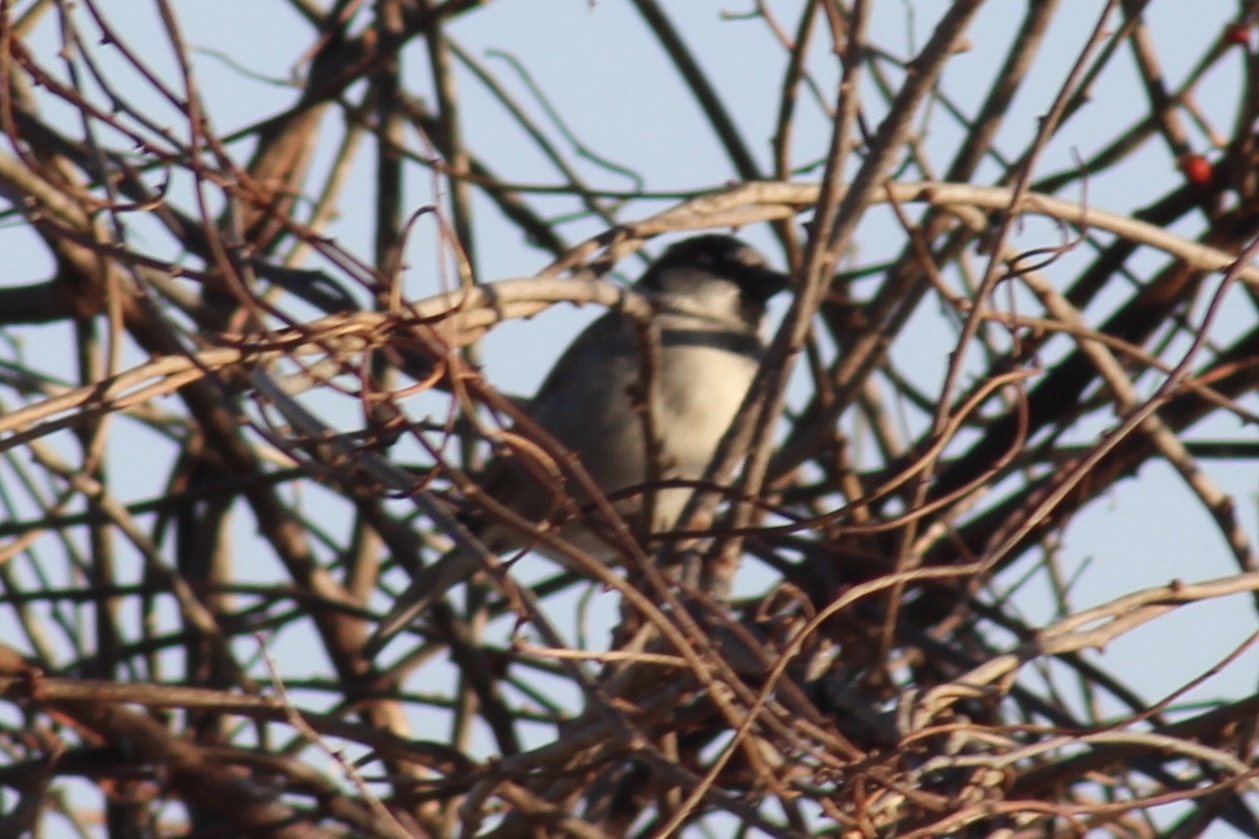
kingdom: Animalia
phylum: Chordata
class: Aves
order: Passeriformes
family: Passeridae
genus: Passer
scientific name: Passer domesticus
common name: House sparrow
